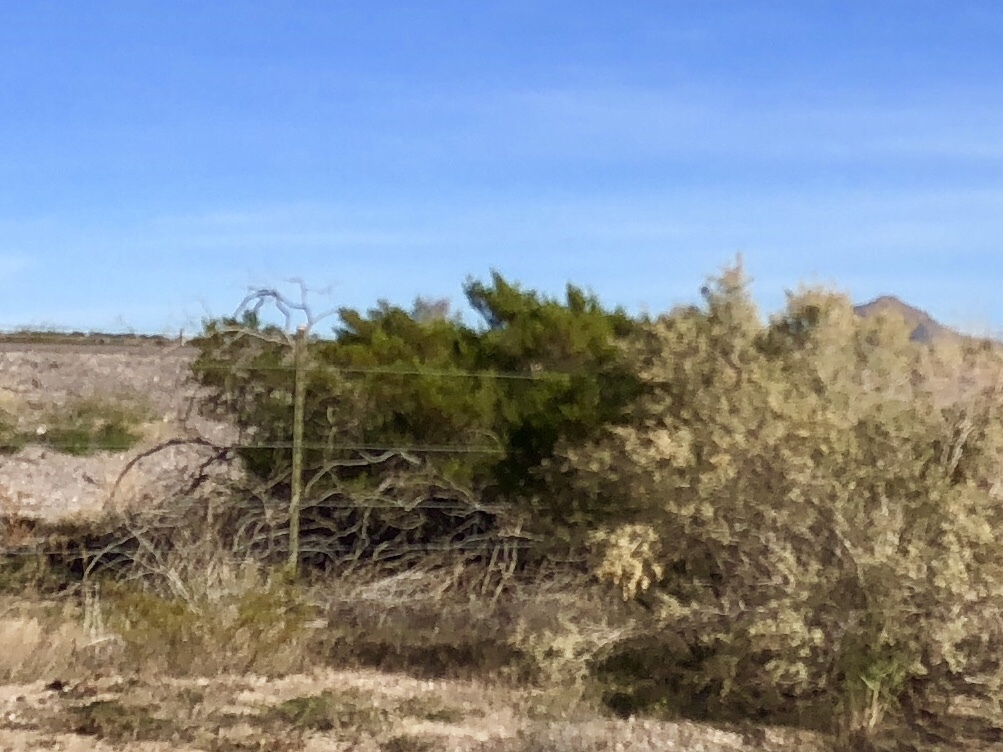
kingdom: Plantae
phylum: Tracheophyta
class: Magnoliopsida
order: Zygophyllales
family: Zygophyllaceae
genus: Larrea
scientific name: Larrea tridentata
